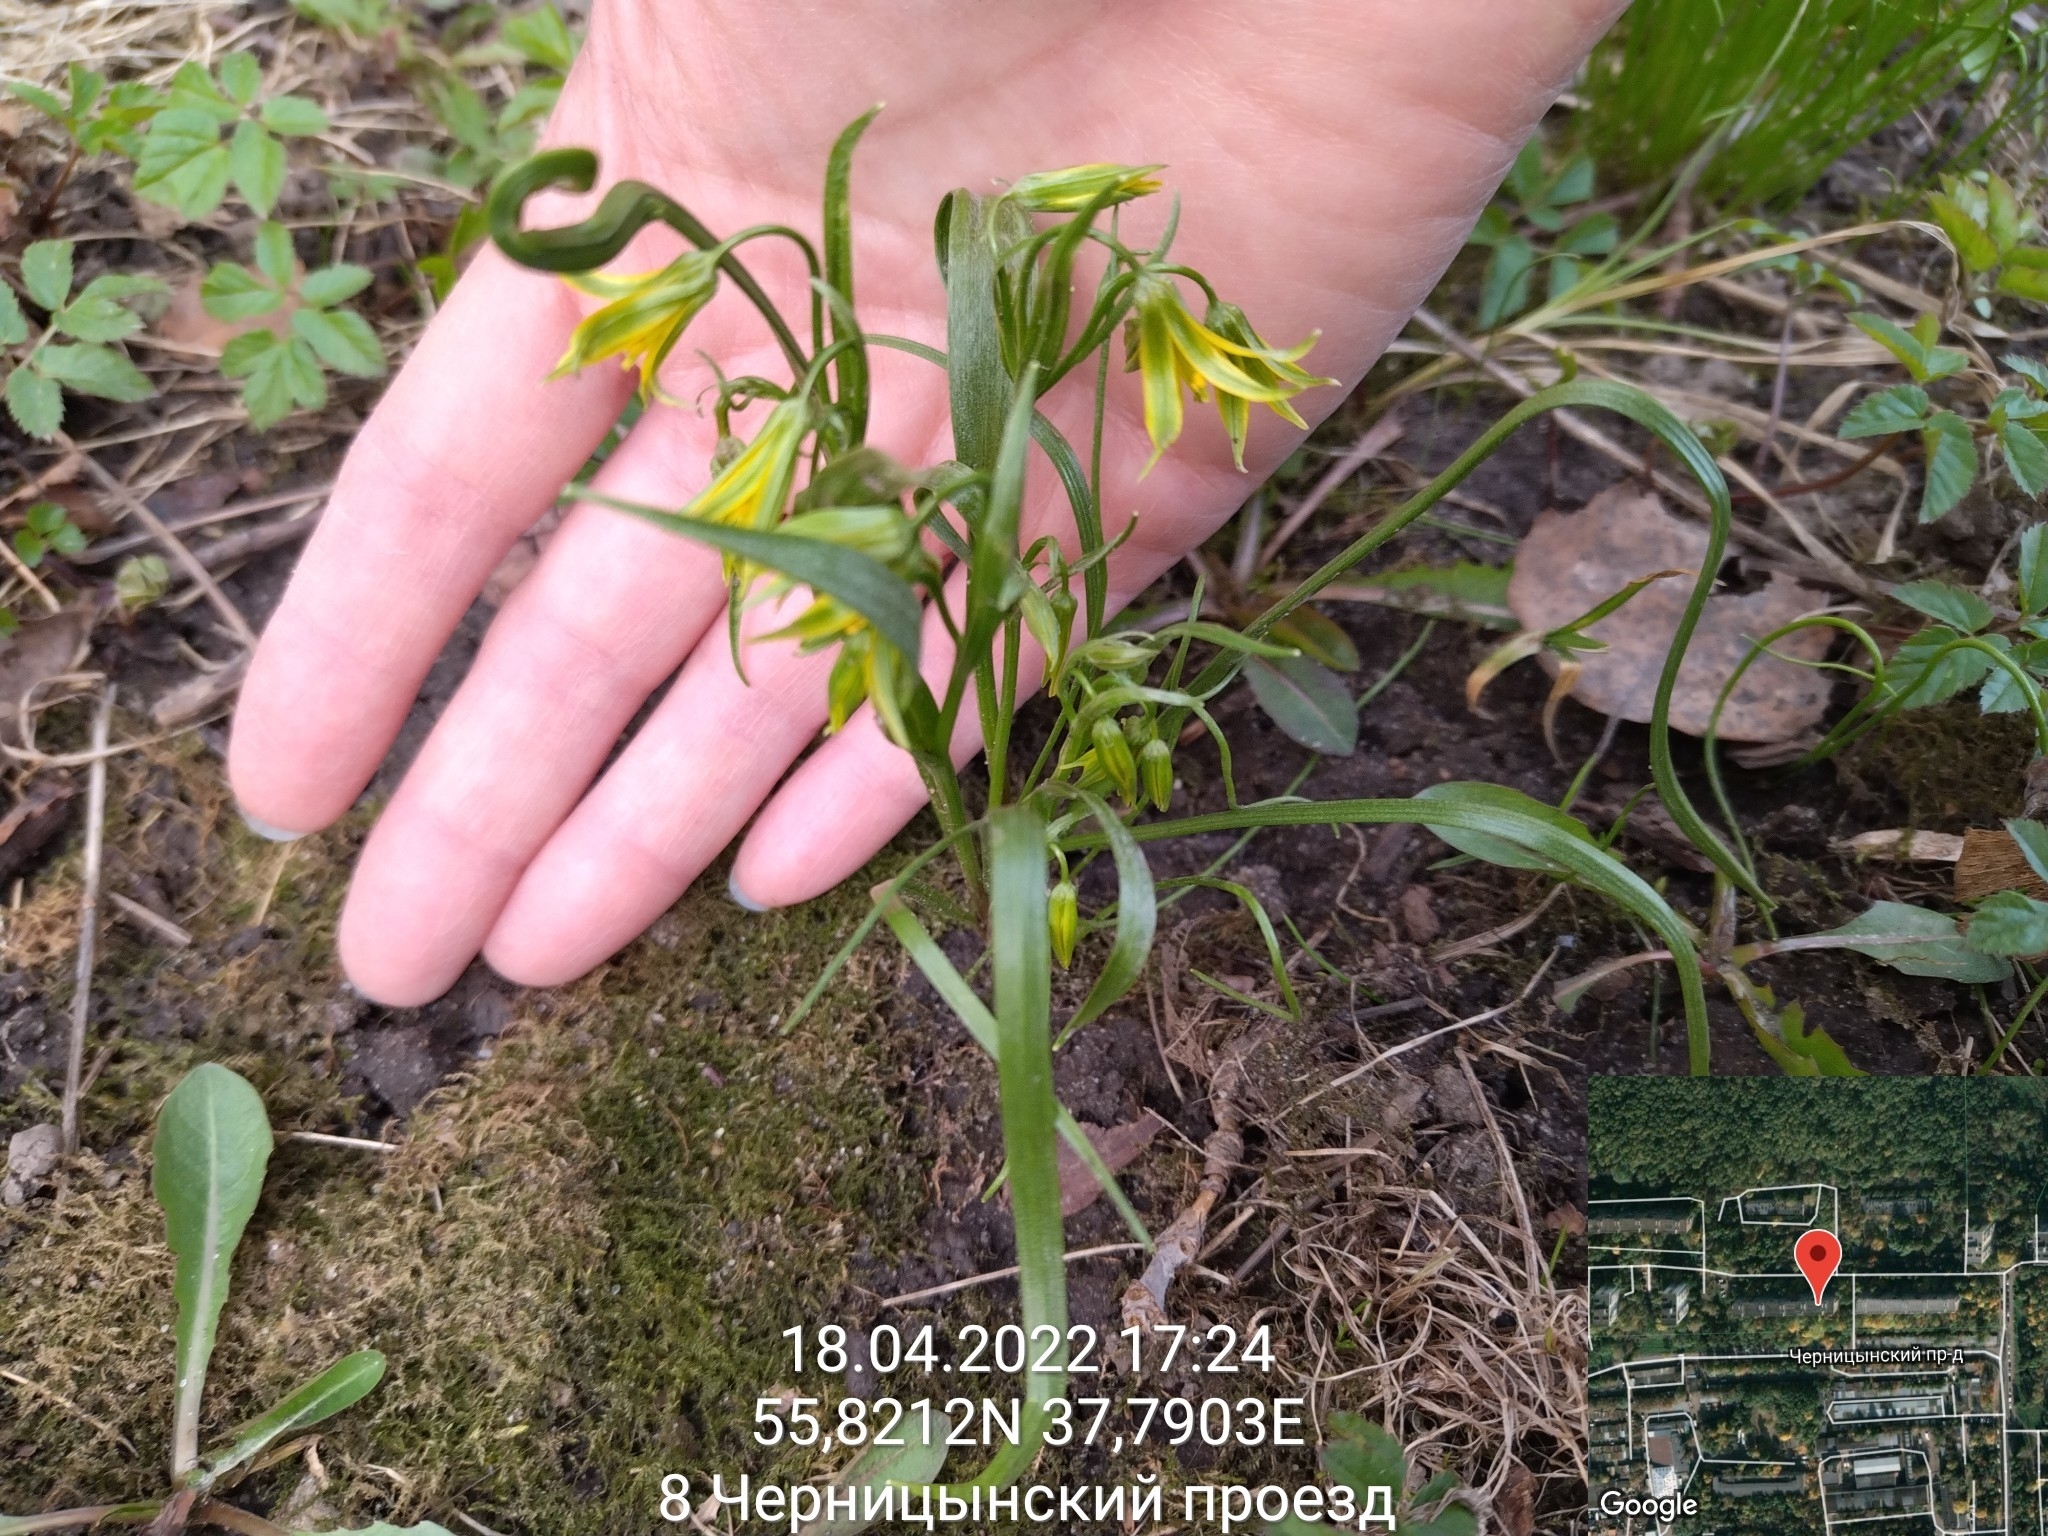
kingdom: Plantae
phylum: Tracheophyta
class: Liliopsida
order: Liliales
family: Liliaceae
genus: Gagea
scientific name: Gagea minima
